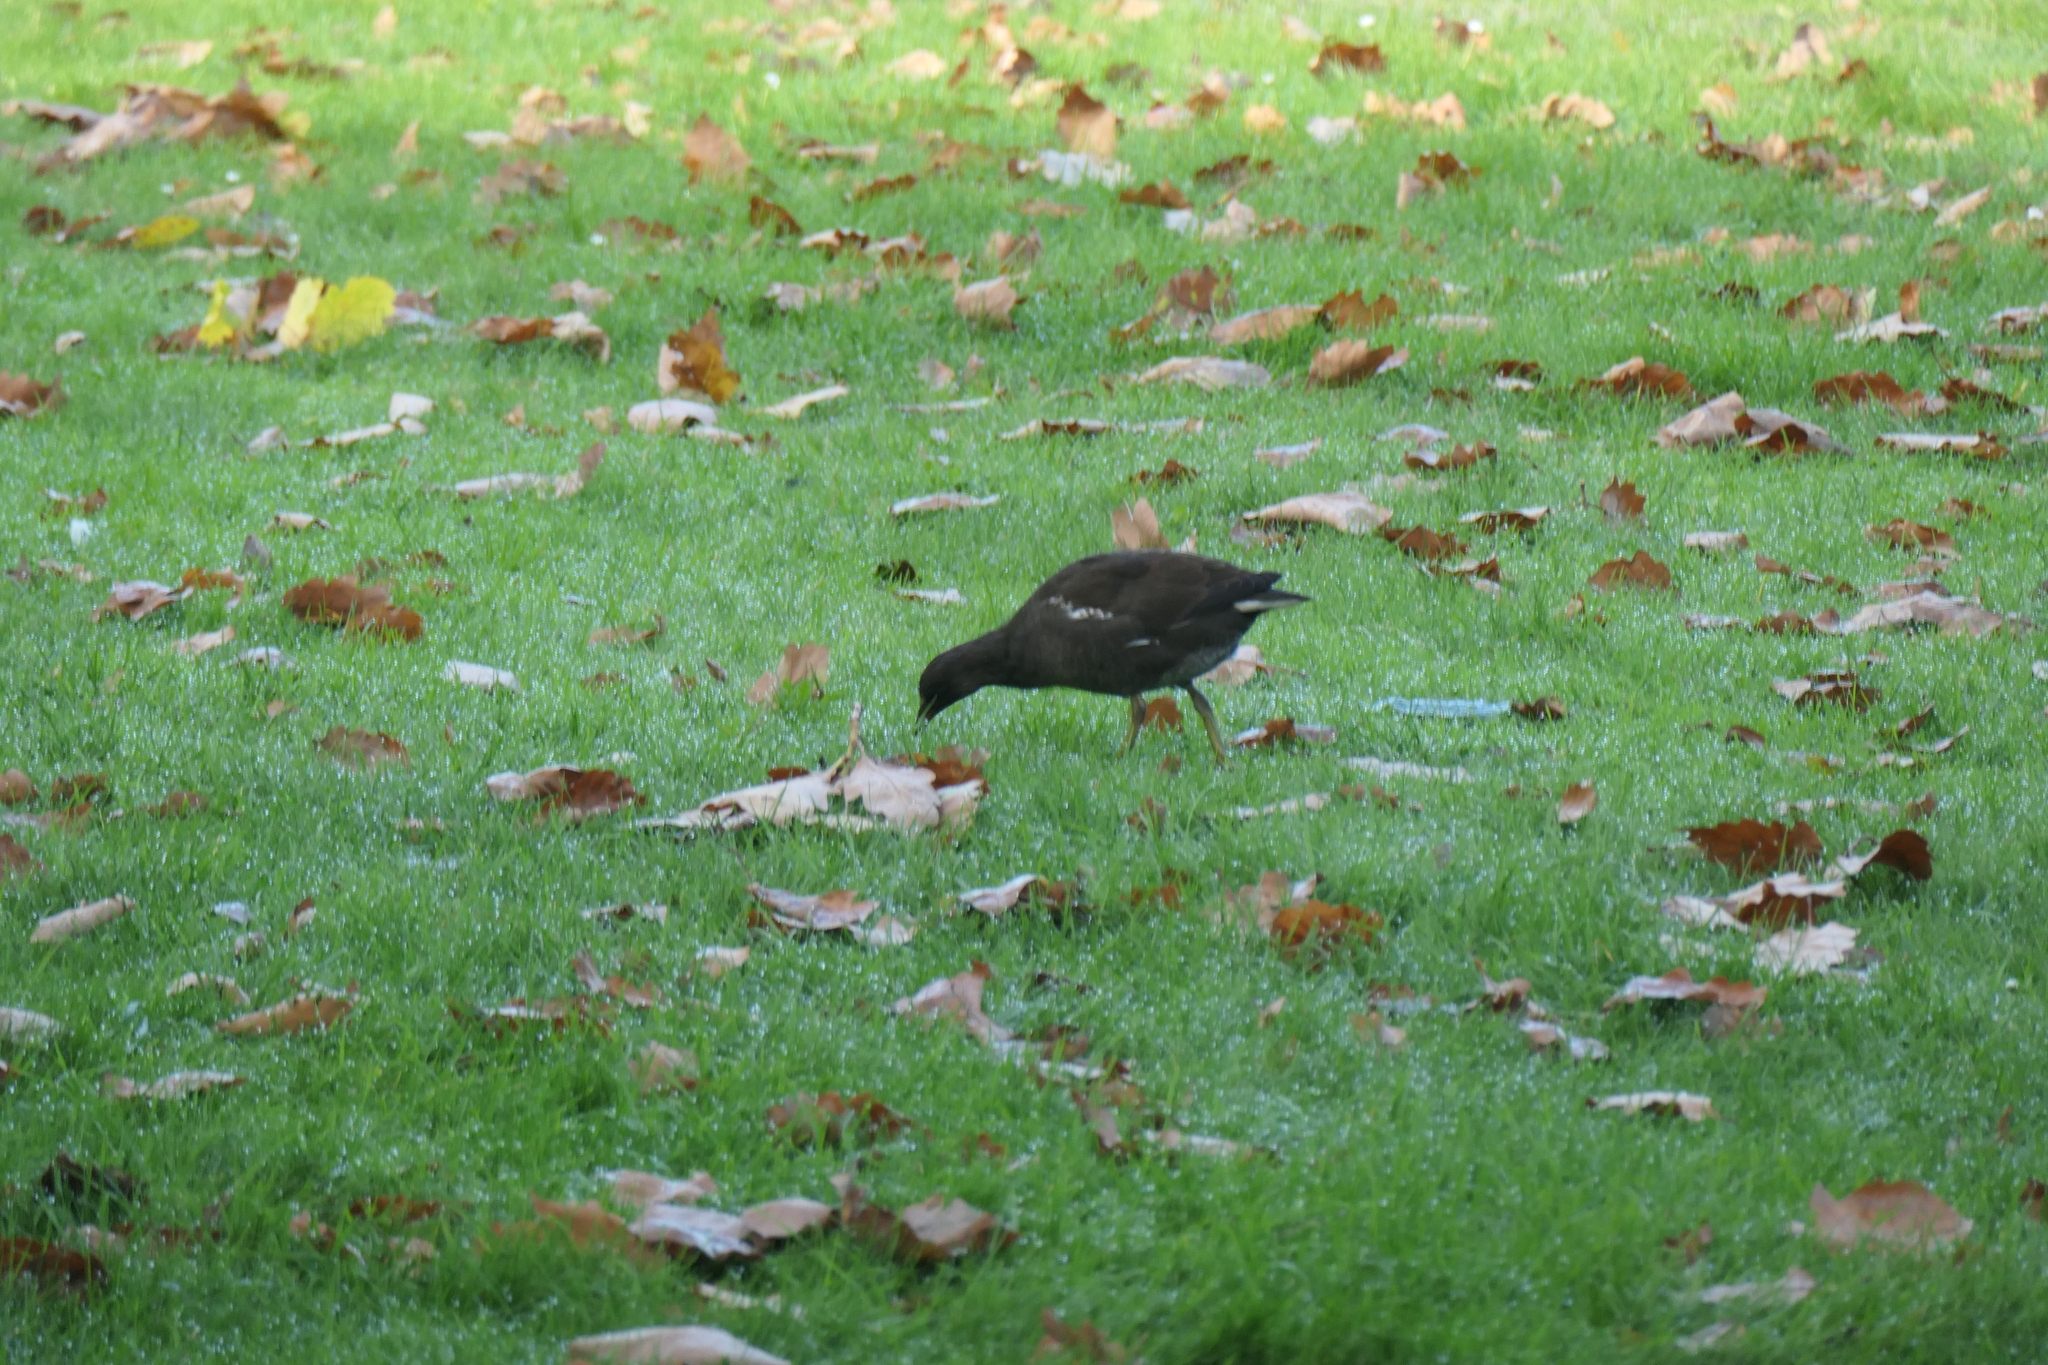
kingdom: Animalia
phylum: Chordata
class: Aves
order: Gruiformes
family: Rallidae
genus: Gallinula
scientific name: Gallinula chloropus
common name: Common moorhen
